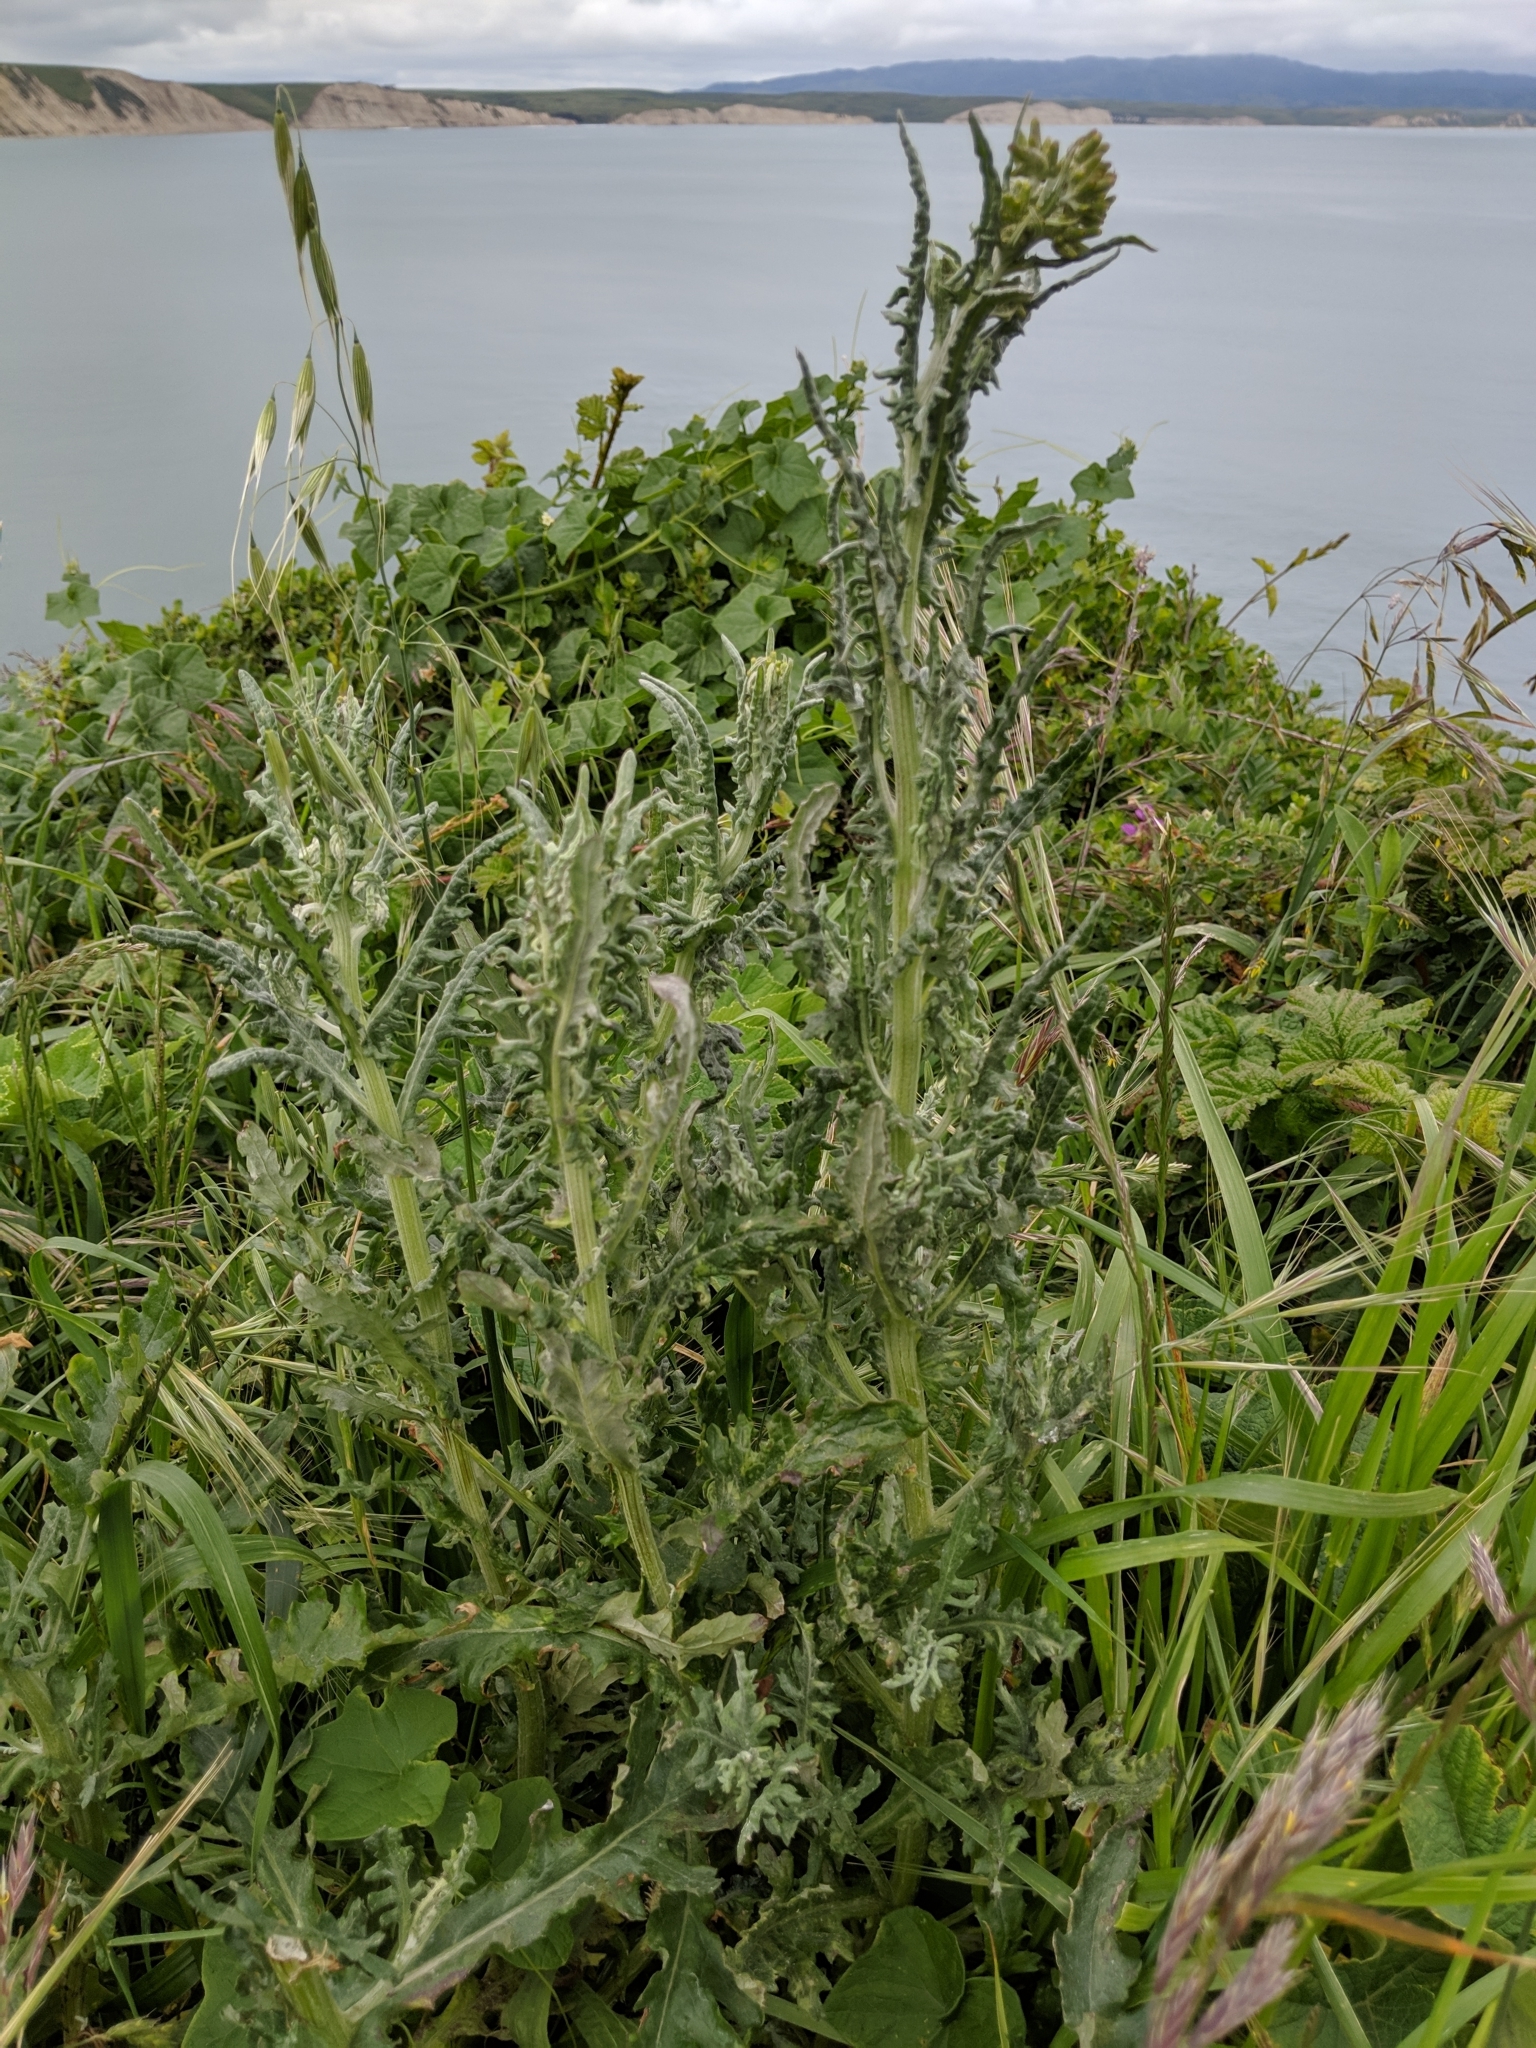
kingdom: Plantae
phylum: Tracheophyta
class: Magnoliopsida
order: Asterales
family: Asteraceae
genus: Senecio
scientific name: Senecio glomeratus
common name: Cutleaf burnweed
